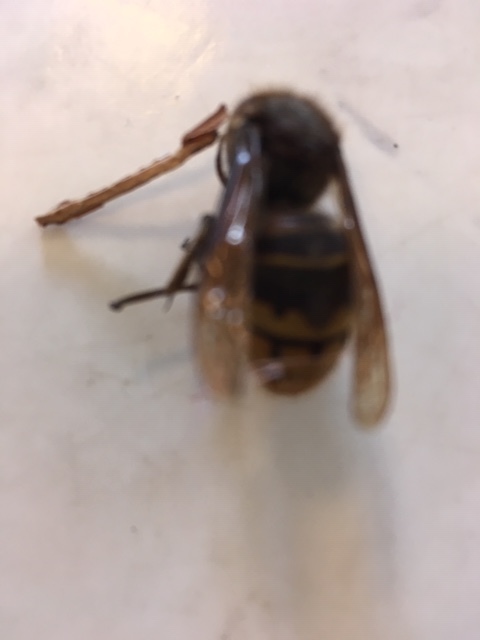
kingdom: Animalia
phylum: Arthropoda
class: Insecta
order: Hymenoptera
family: Vespidae
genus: Vespa
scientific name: Vespa crabro
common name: Hornet
